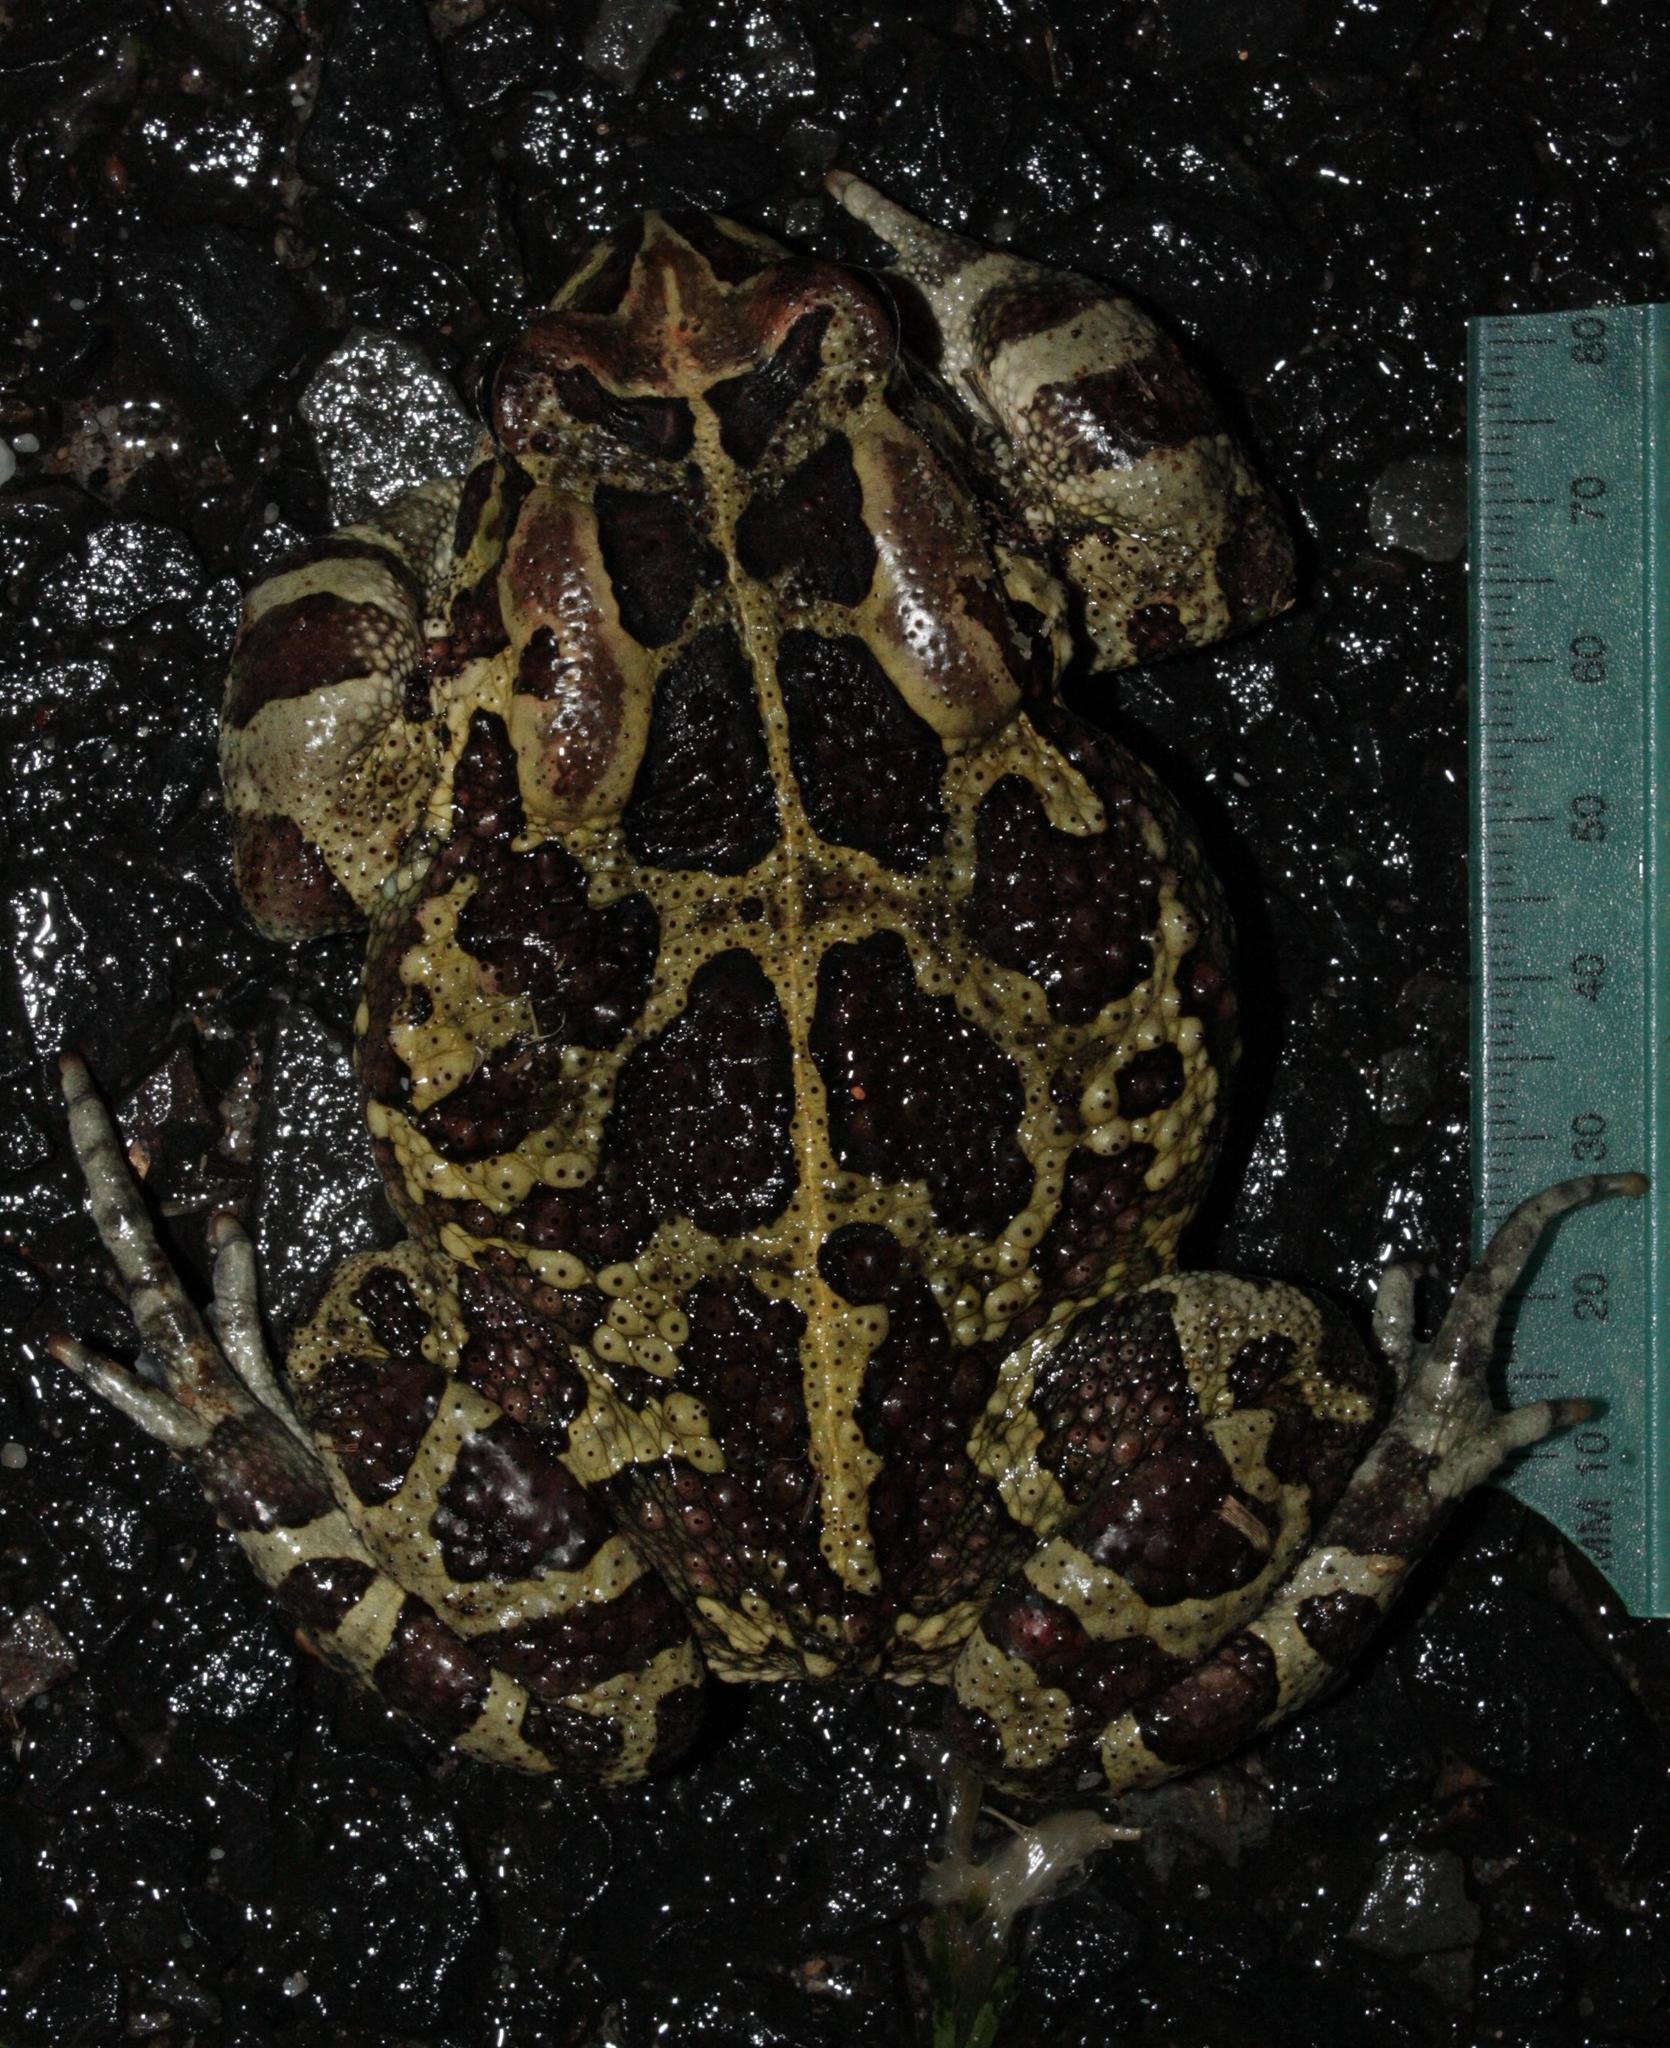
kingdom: Animalia
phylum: Chordata
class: Amphibia
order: Anura
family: Bufonidae
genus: Sclerophrys
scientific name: Sclerophrys pantherina
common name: Panther toad
